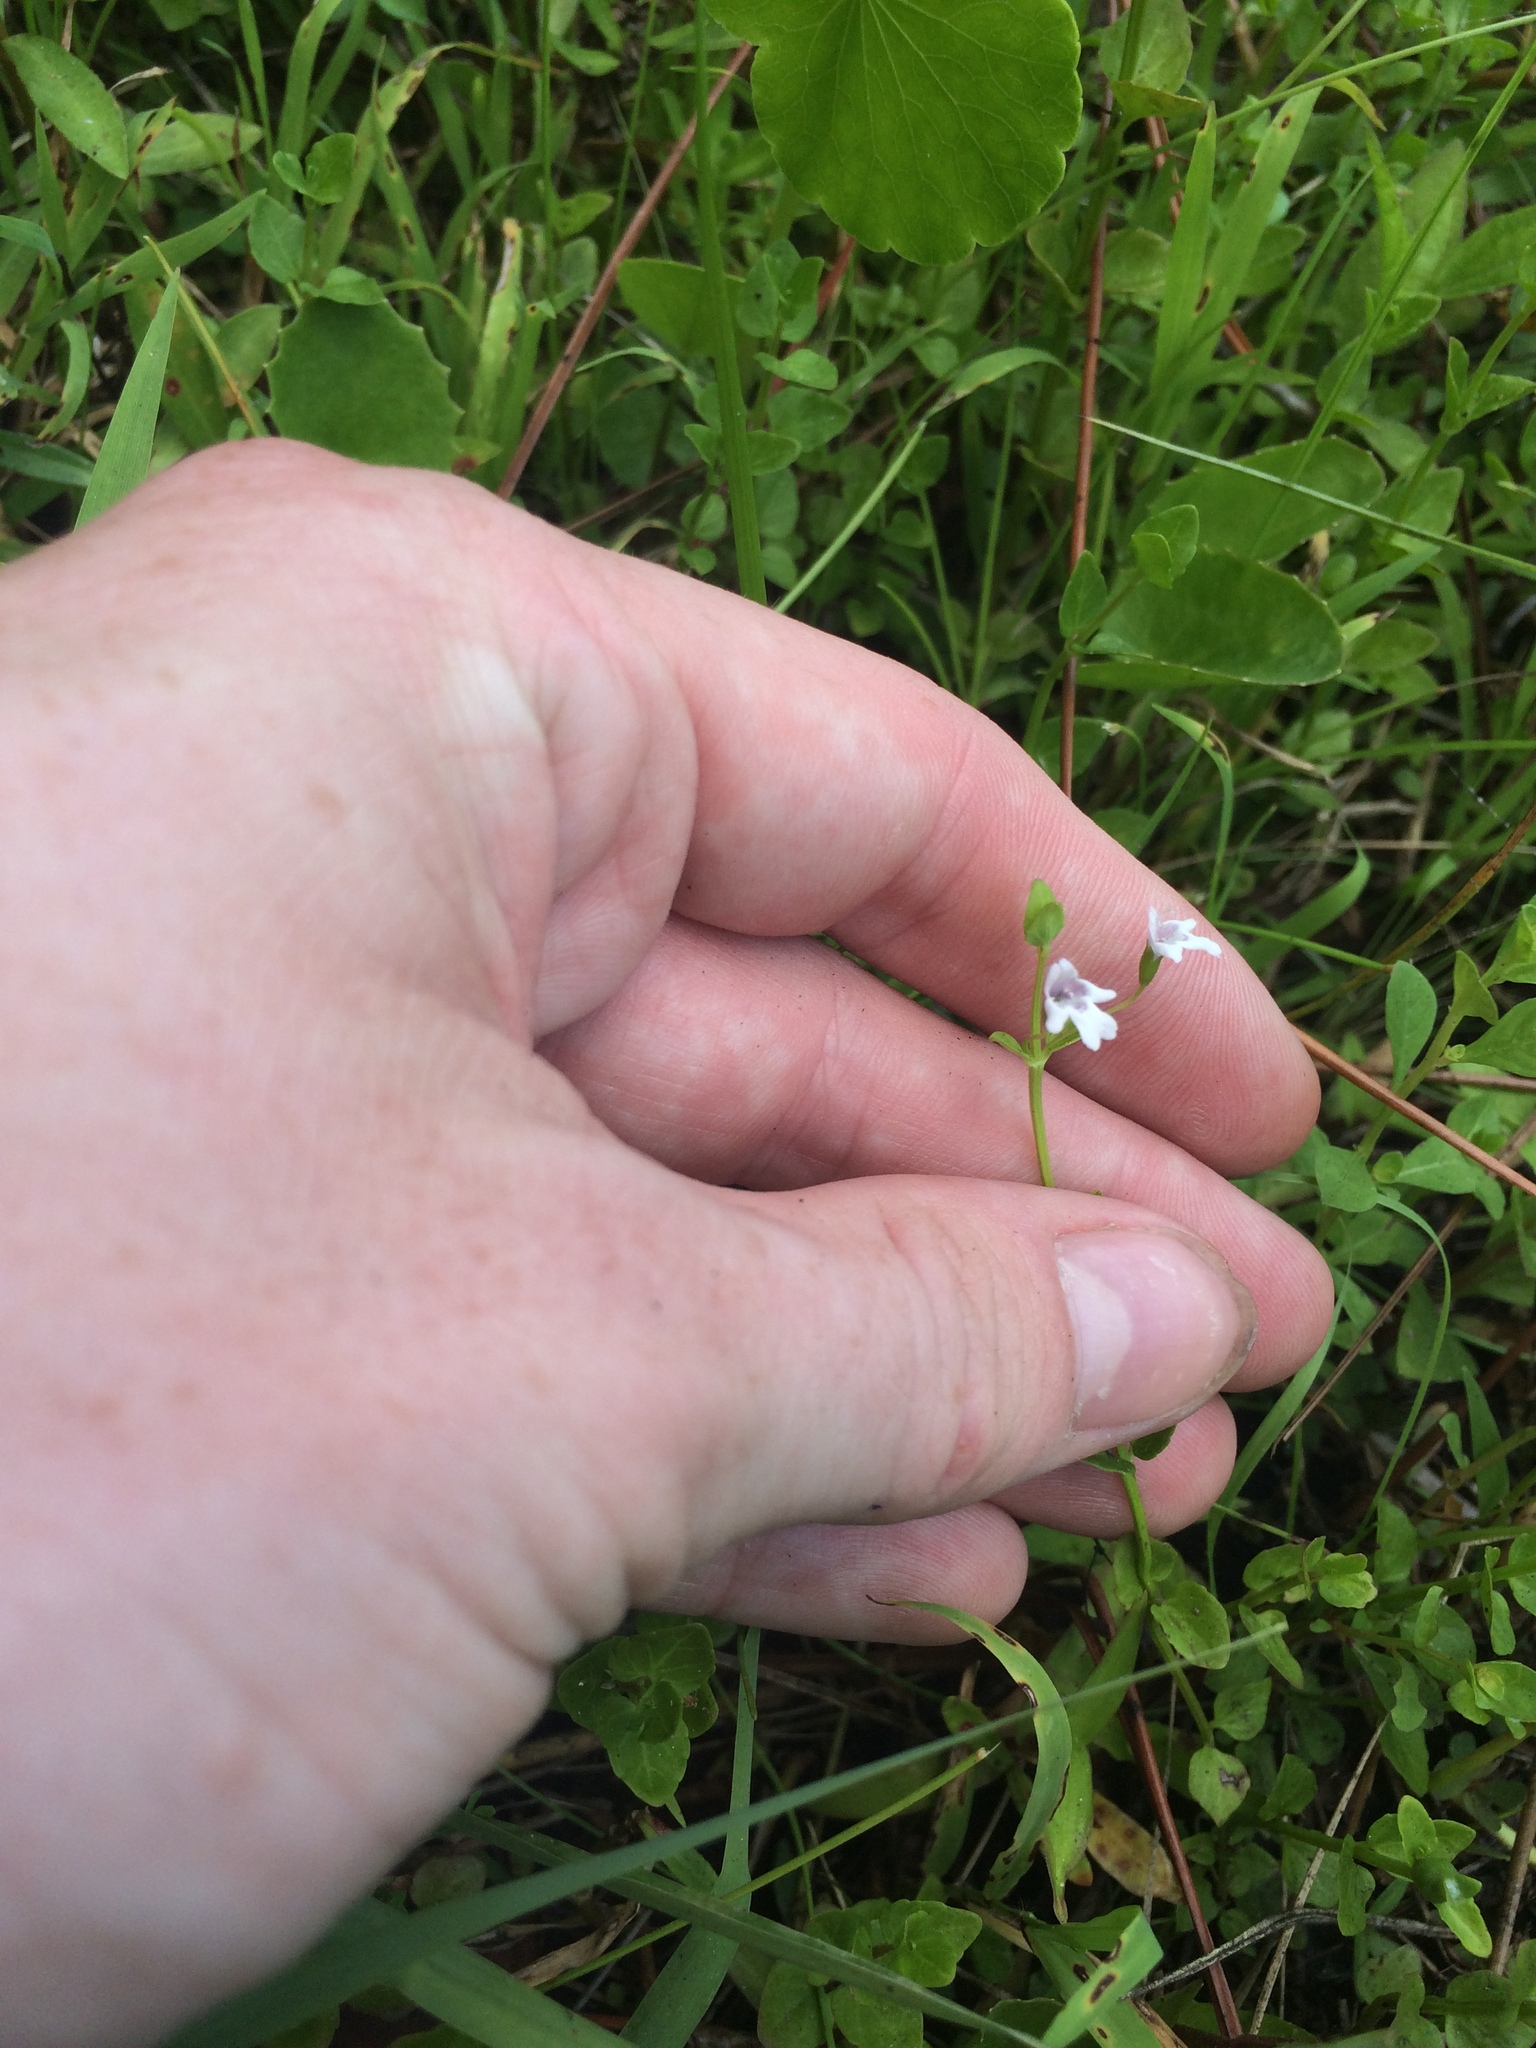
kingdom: Plantae
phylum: Tracheophyta
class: Magnoliopsida
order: Lamiales
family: Lamiaceae
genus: Clinopodium
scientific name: Clinopodium brownei
